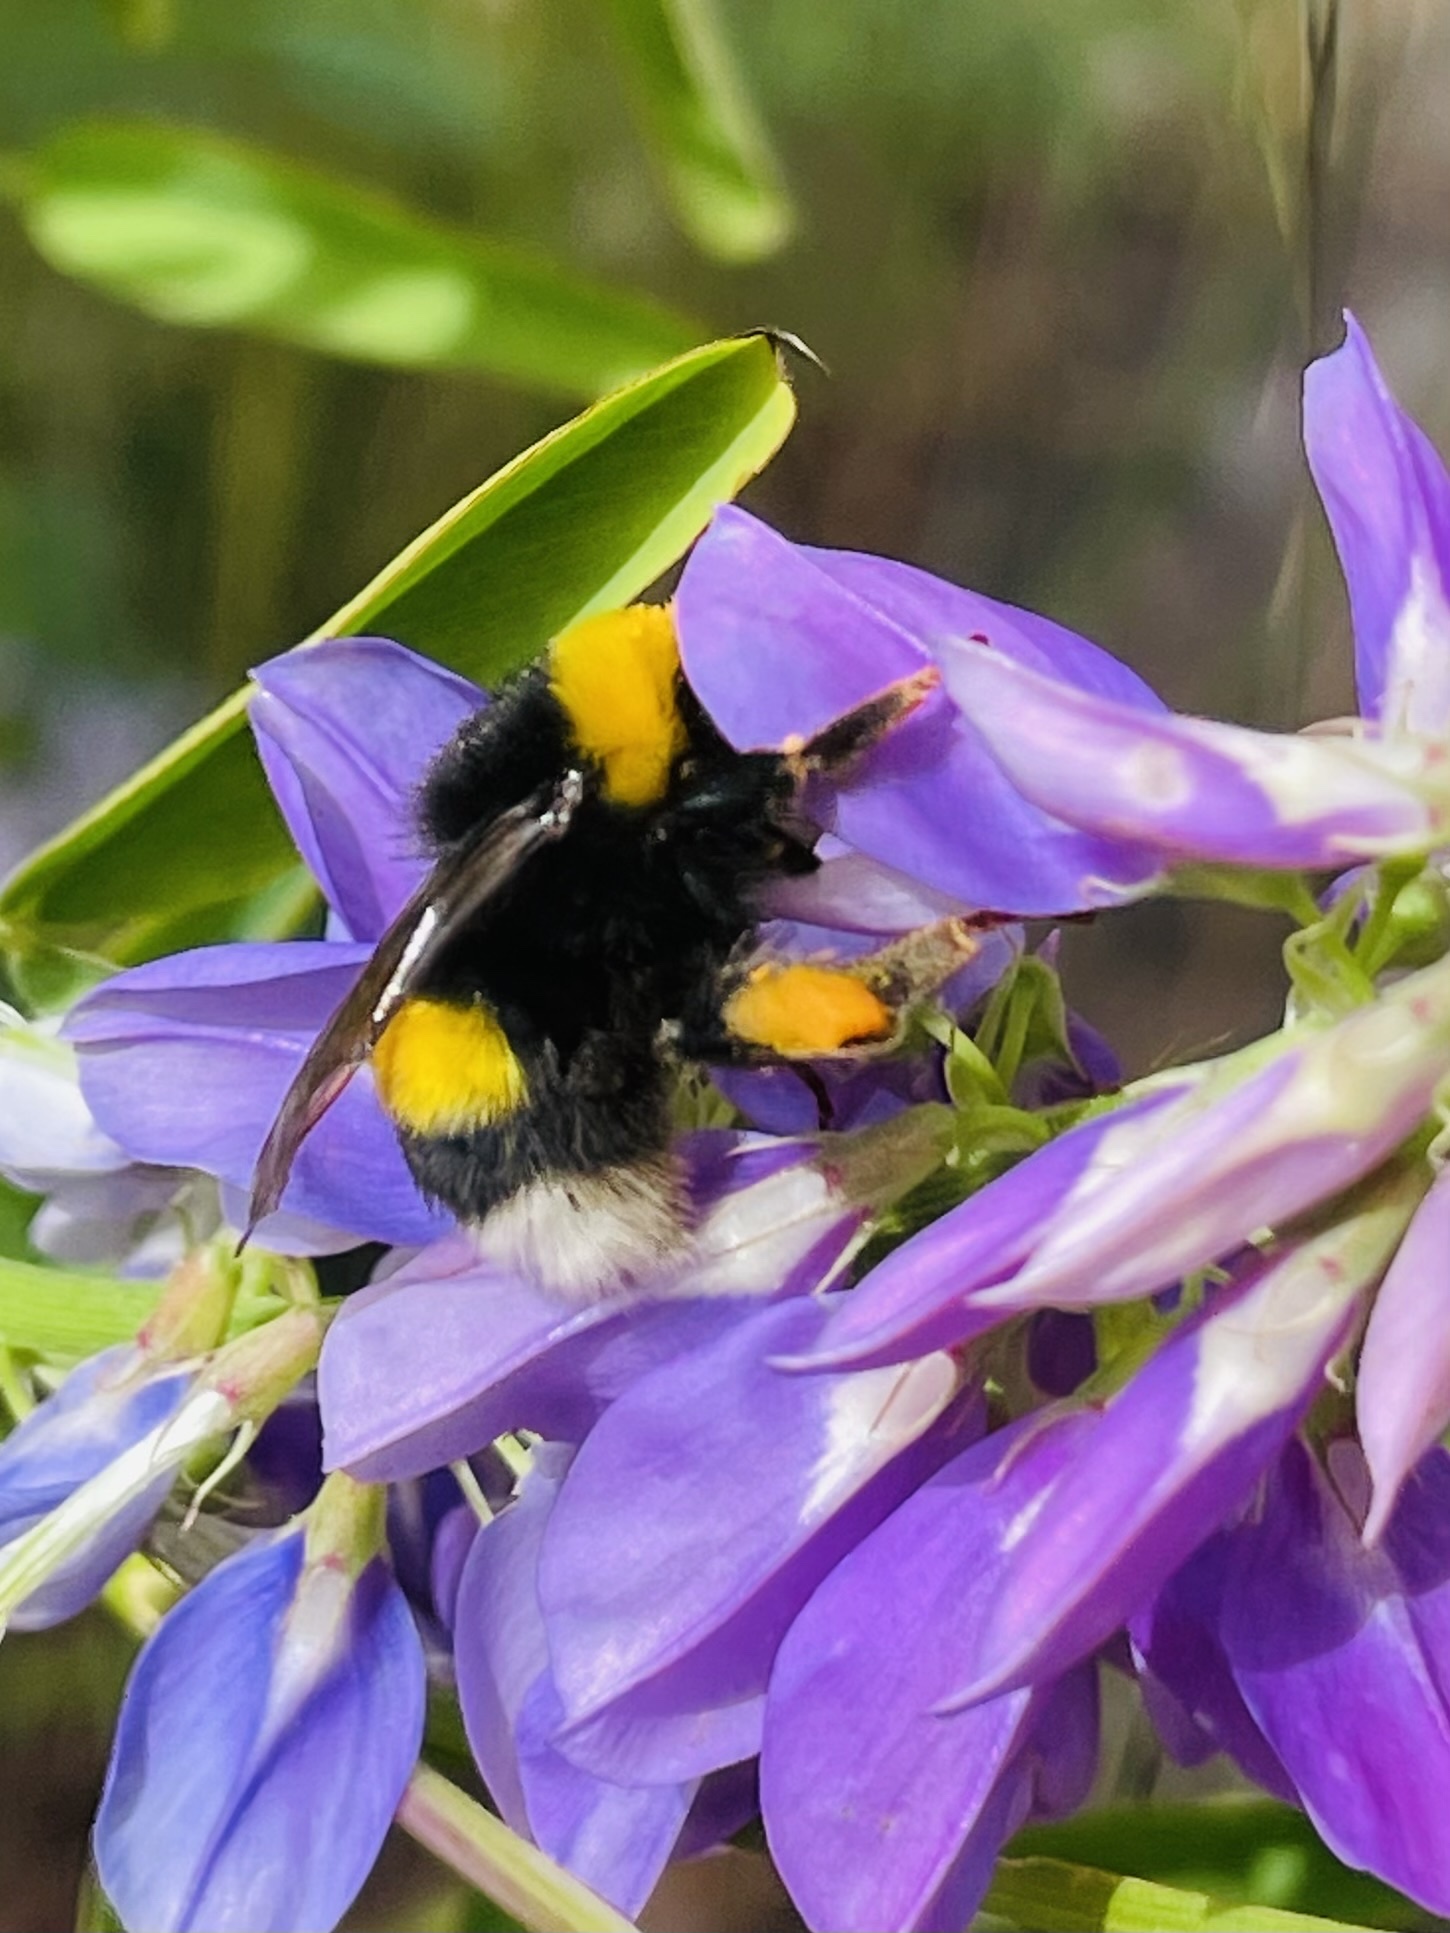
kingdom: Animalia
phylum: Arthropoda
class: Insecta
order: Hymenoptera
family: Apidae
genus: Bombus
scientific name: Bombus terrestris
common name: Buff-tailed bumblebee
